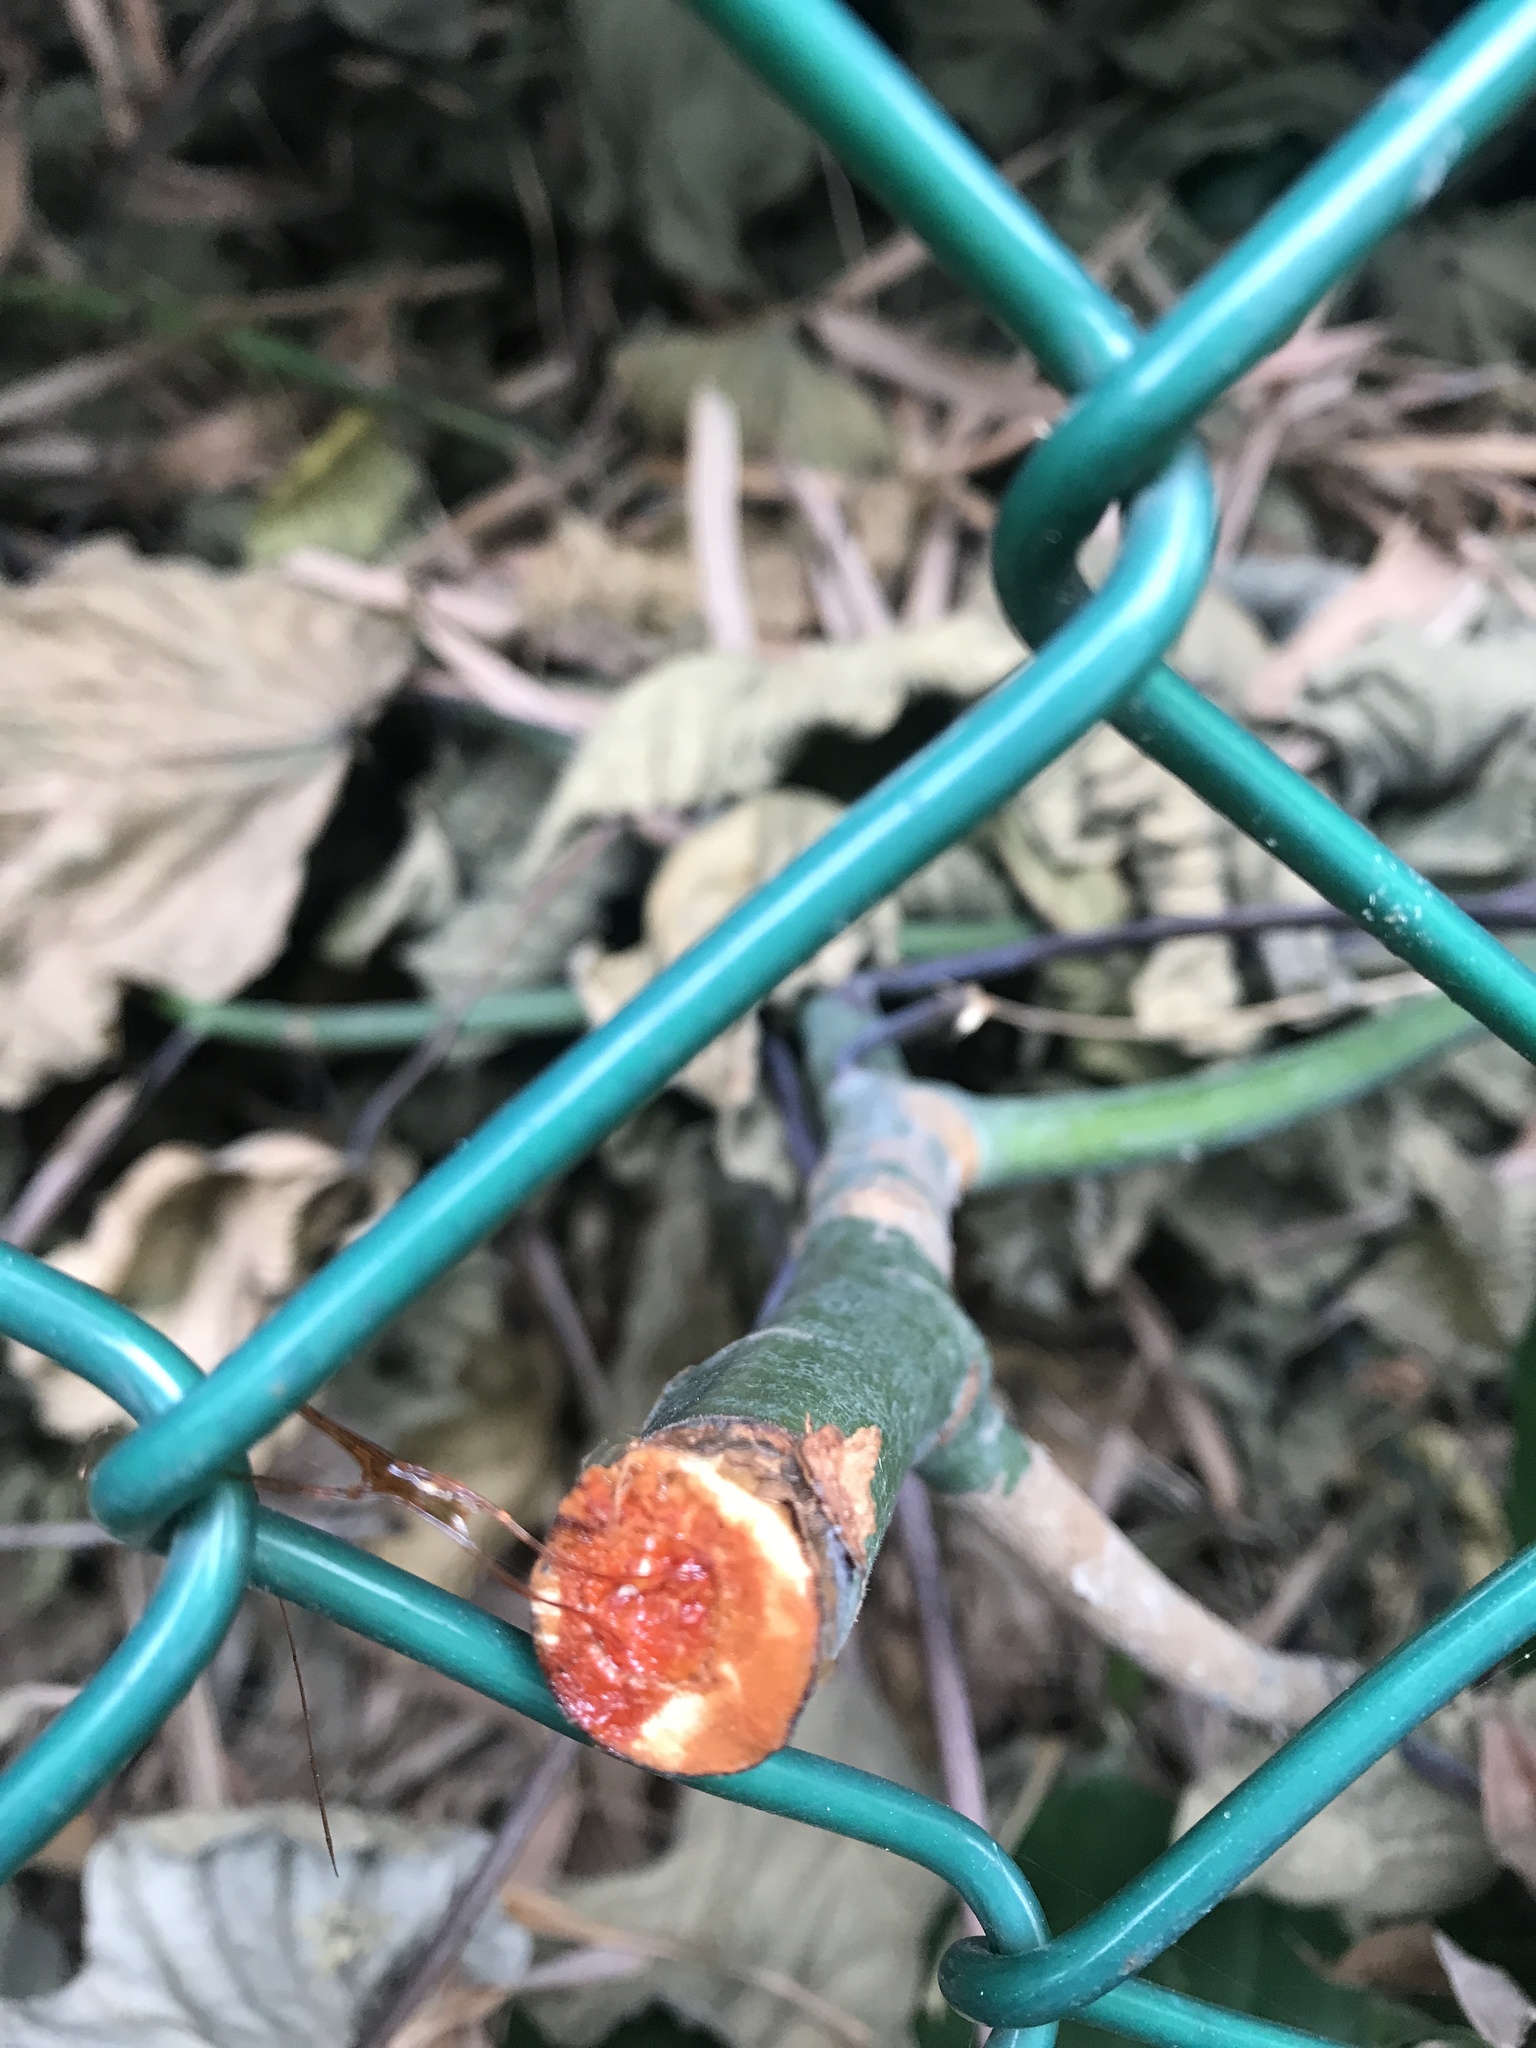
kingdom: Plantae
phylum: Tracheophyta
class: Magnoliopsida
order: Malpighiales
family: Euphorbiaceae
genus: Macaranga
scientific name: Macaranga tanarius
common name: Parasol leaf tree
